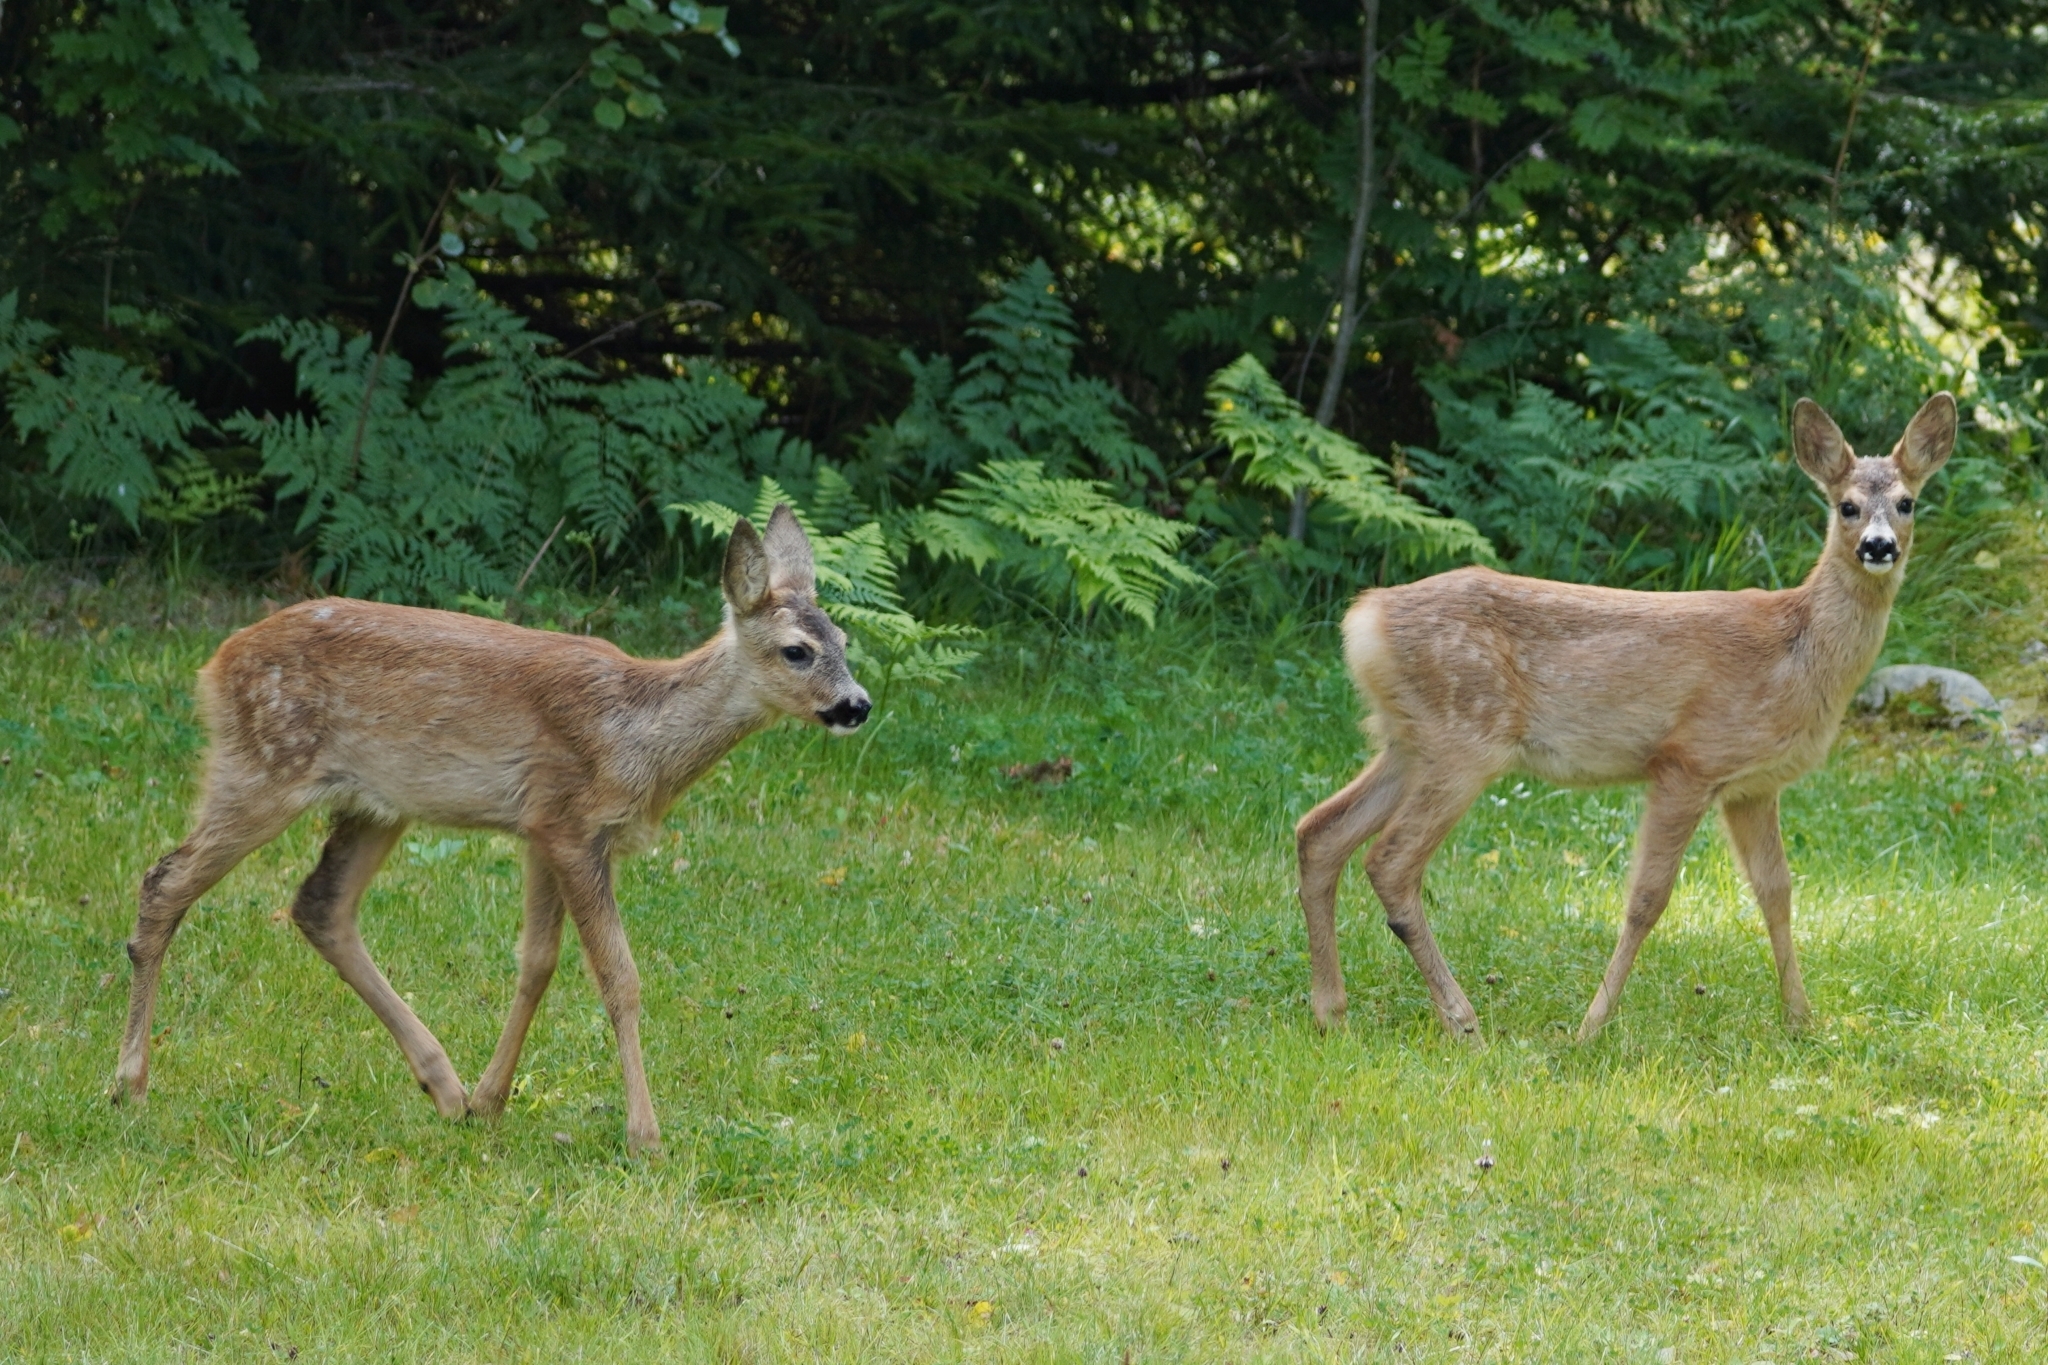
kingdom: Animalia
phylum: Chordata
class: Mammalia
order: Artiodactyla
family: Cervidae
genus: Capreolus
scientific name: Capreolus capreolus
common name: Western roe deer
